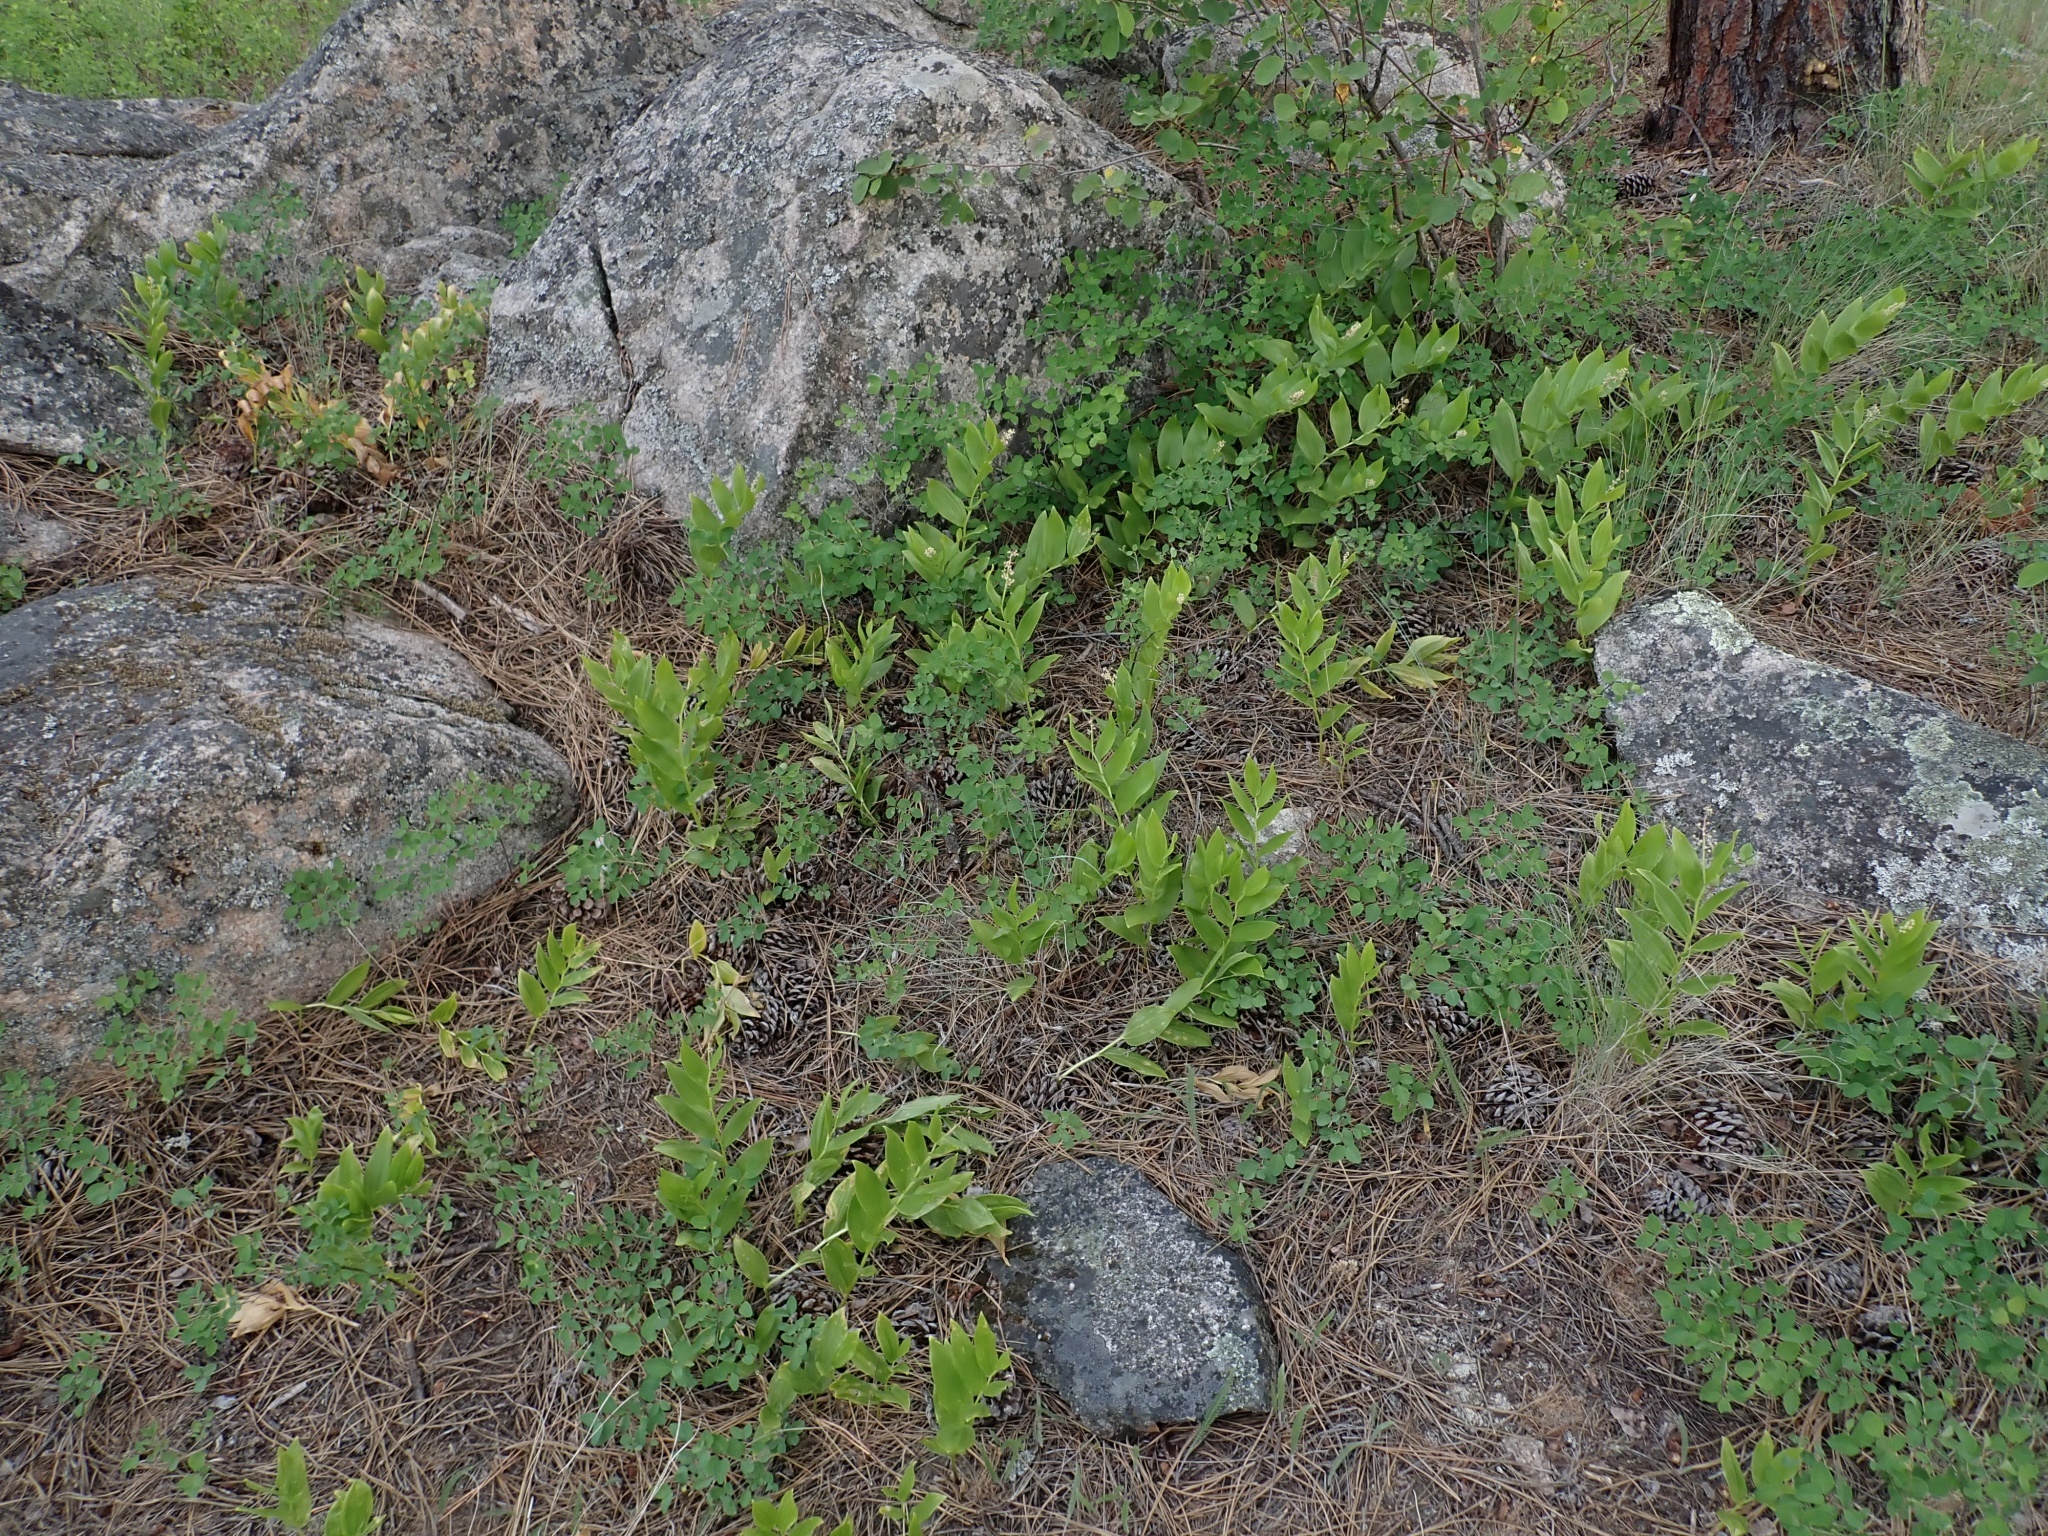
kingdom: Plantae
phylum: Tracheophyta
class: Liliopsida
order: Asparagales
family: Asparagaceae
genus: Maianthemum
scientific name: Maianthemum racemosum
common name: False spikenard
